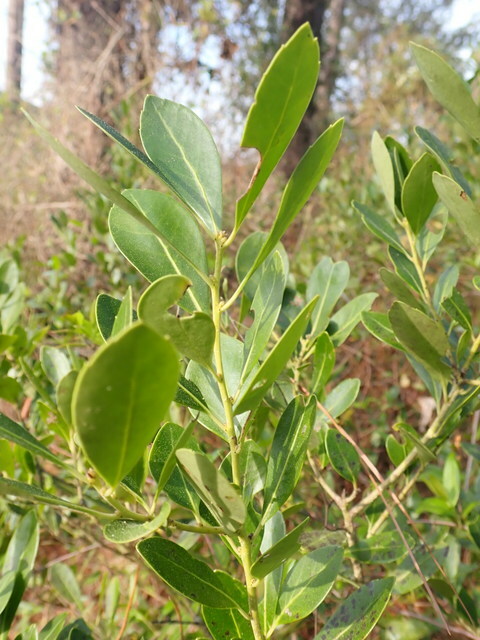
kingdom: Plantae
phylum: Tracheophyta
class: Magnoliopsida
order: Aquifoliales
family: Aquifoliaceae
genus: Ilex
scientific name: Ilex glabra
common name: Bitter gallberry
